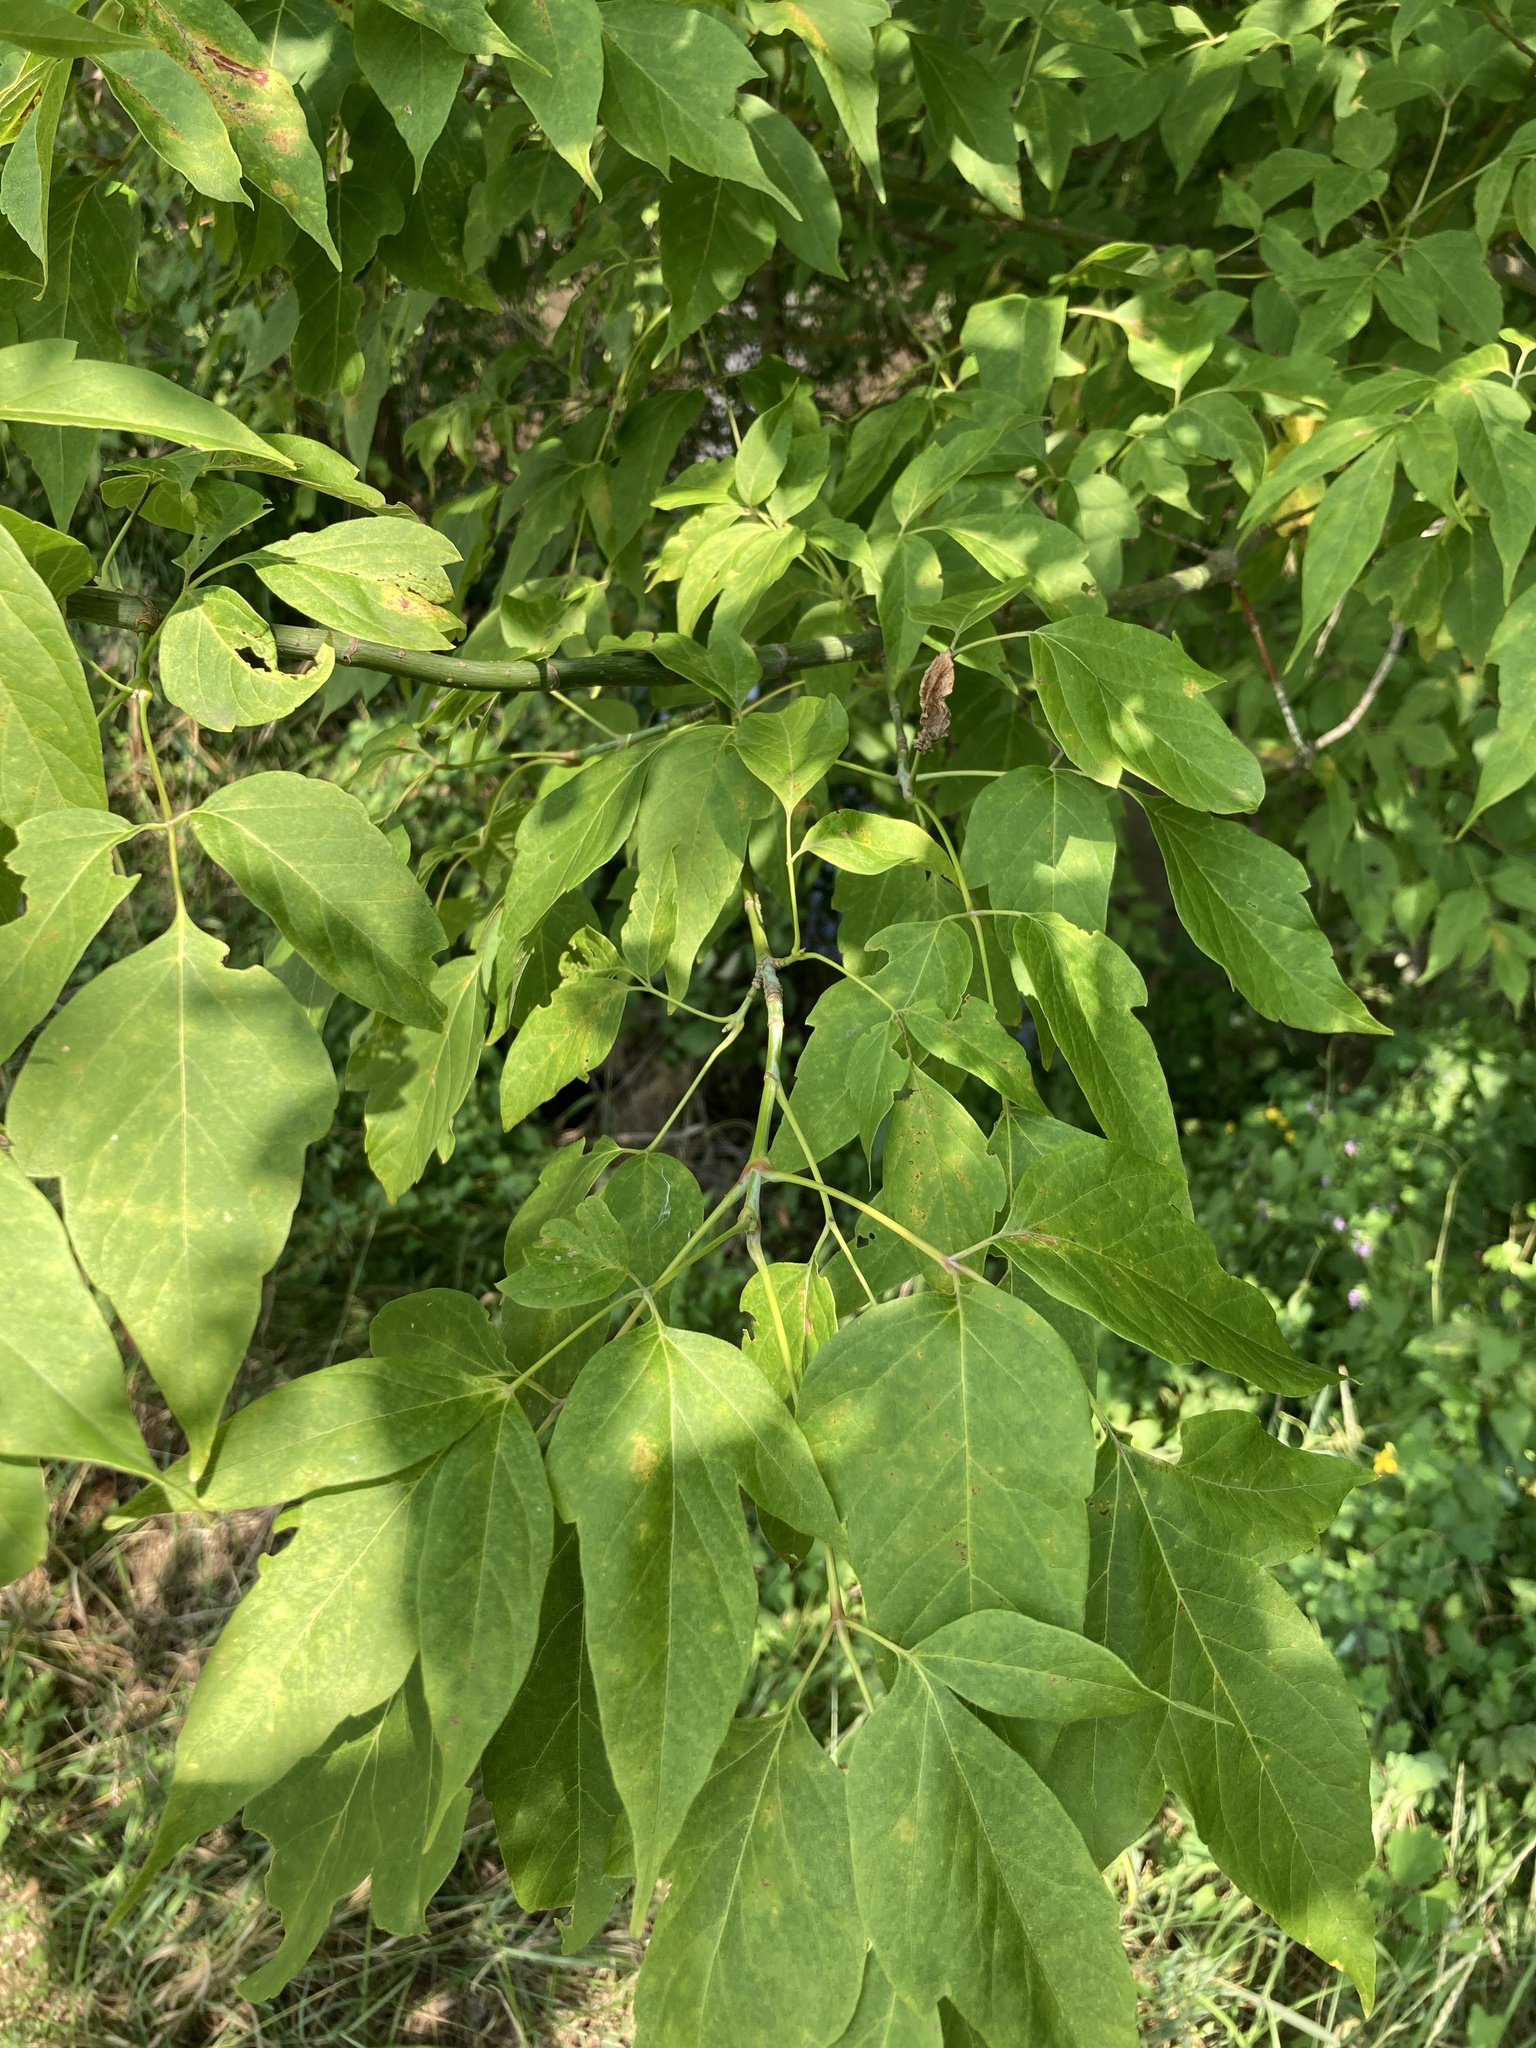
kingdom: Plantae
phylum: Tracheophyta
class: Magnoliopsida
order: Sapindales
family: Sapindaceae
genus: Acer
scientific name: Acer negundo
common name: Ashleaf maple
